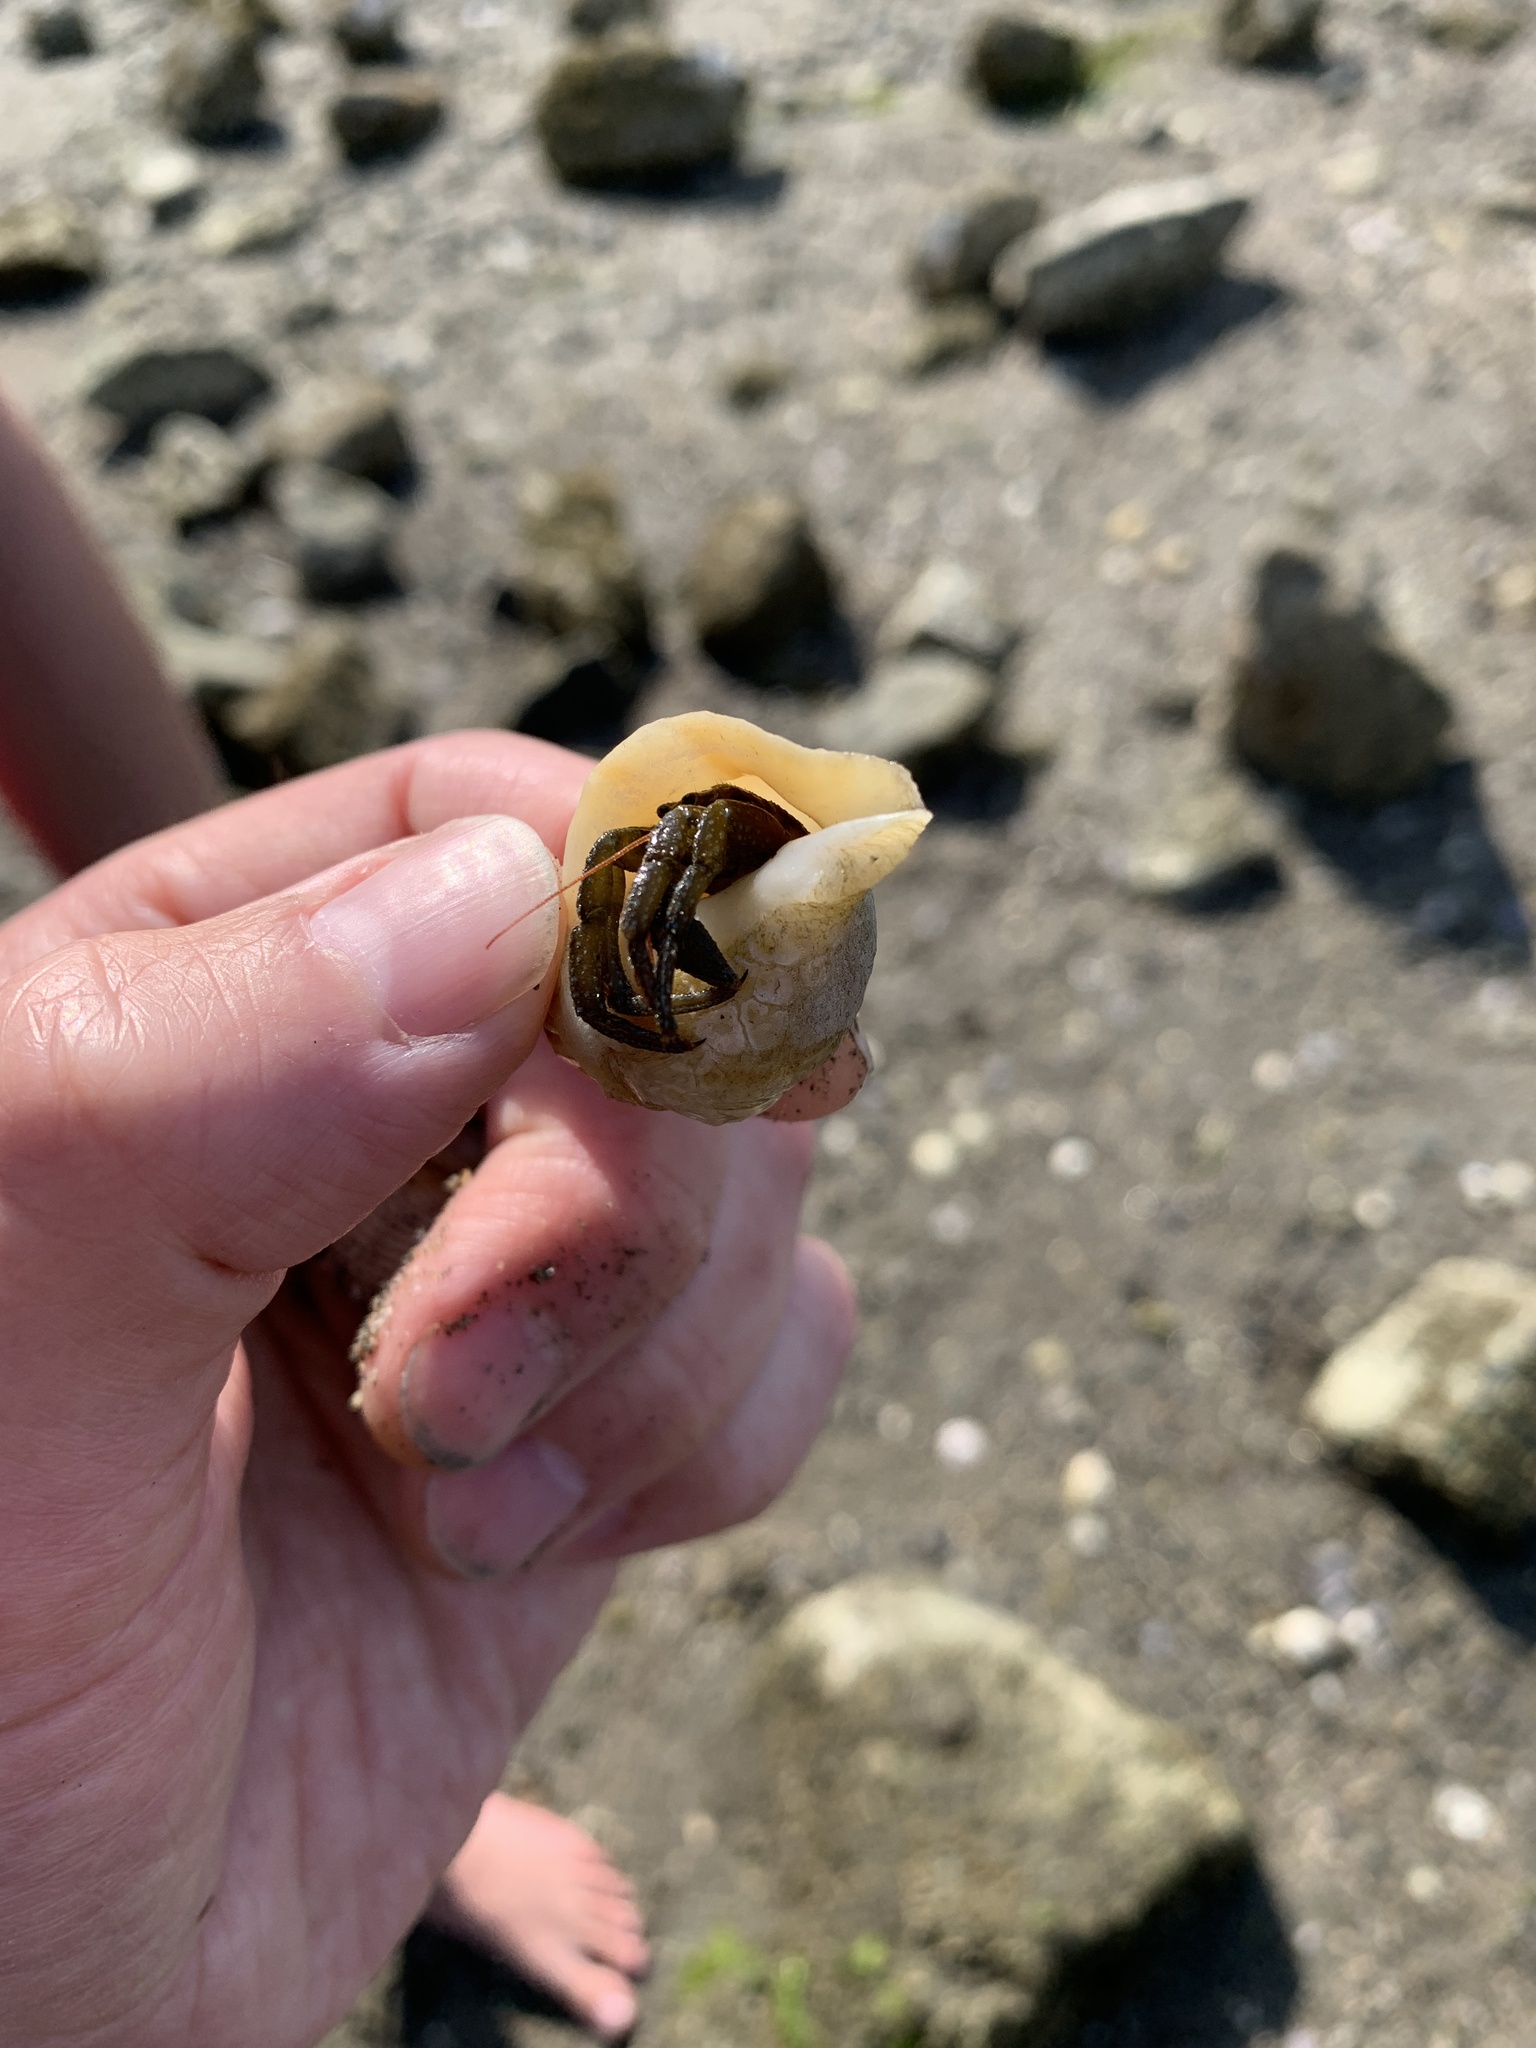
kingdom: Animalia
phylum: Arthropoda
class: Malacostraca
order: Decapoda
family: Paguridae
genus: Pagurus
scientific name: Pagurus granosimanus
